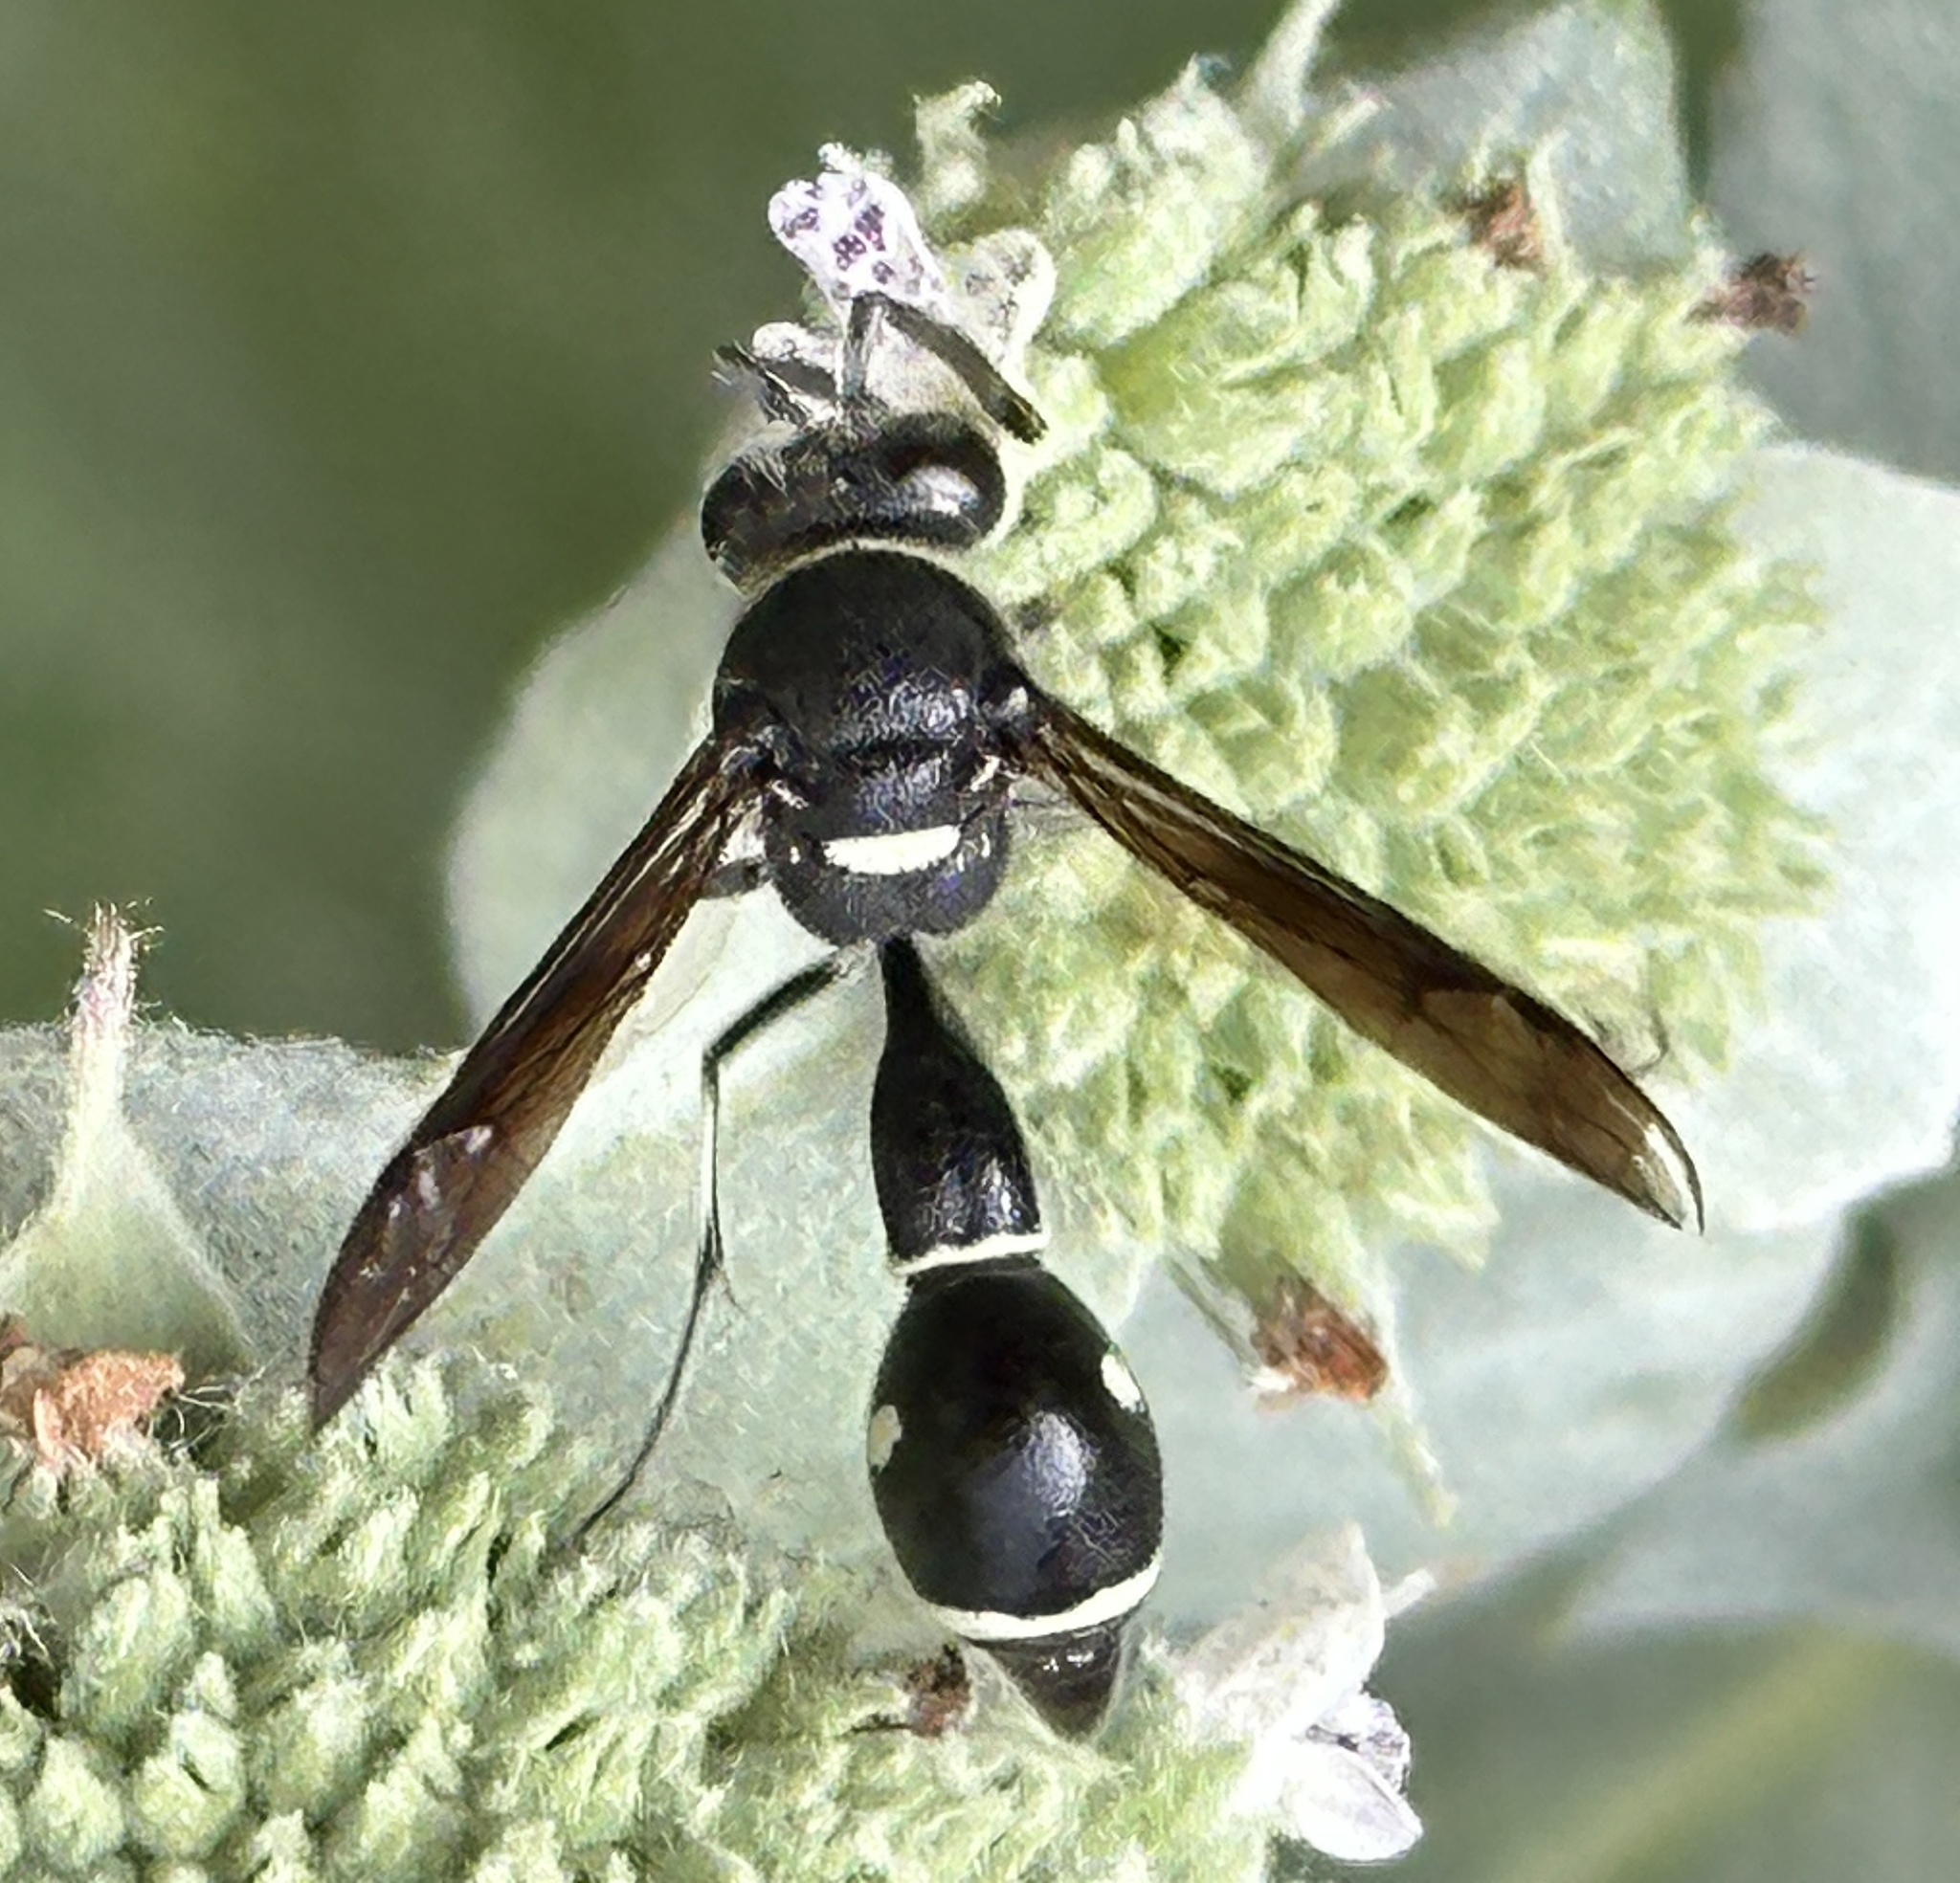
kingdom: Animalia
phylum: Arthropoda
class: Insecta
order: Hymenoptera
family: Vespidae
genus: Eumenes
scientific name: Eumenes fraternus
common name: Fraternal potter wasp
